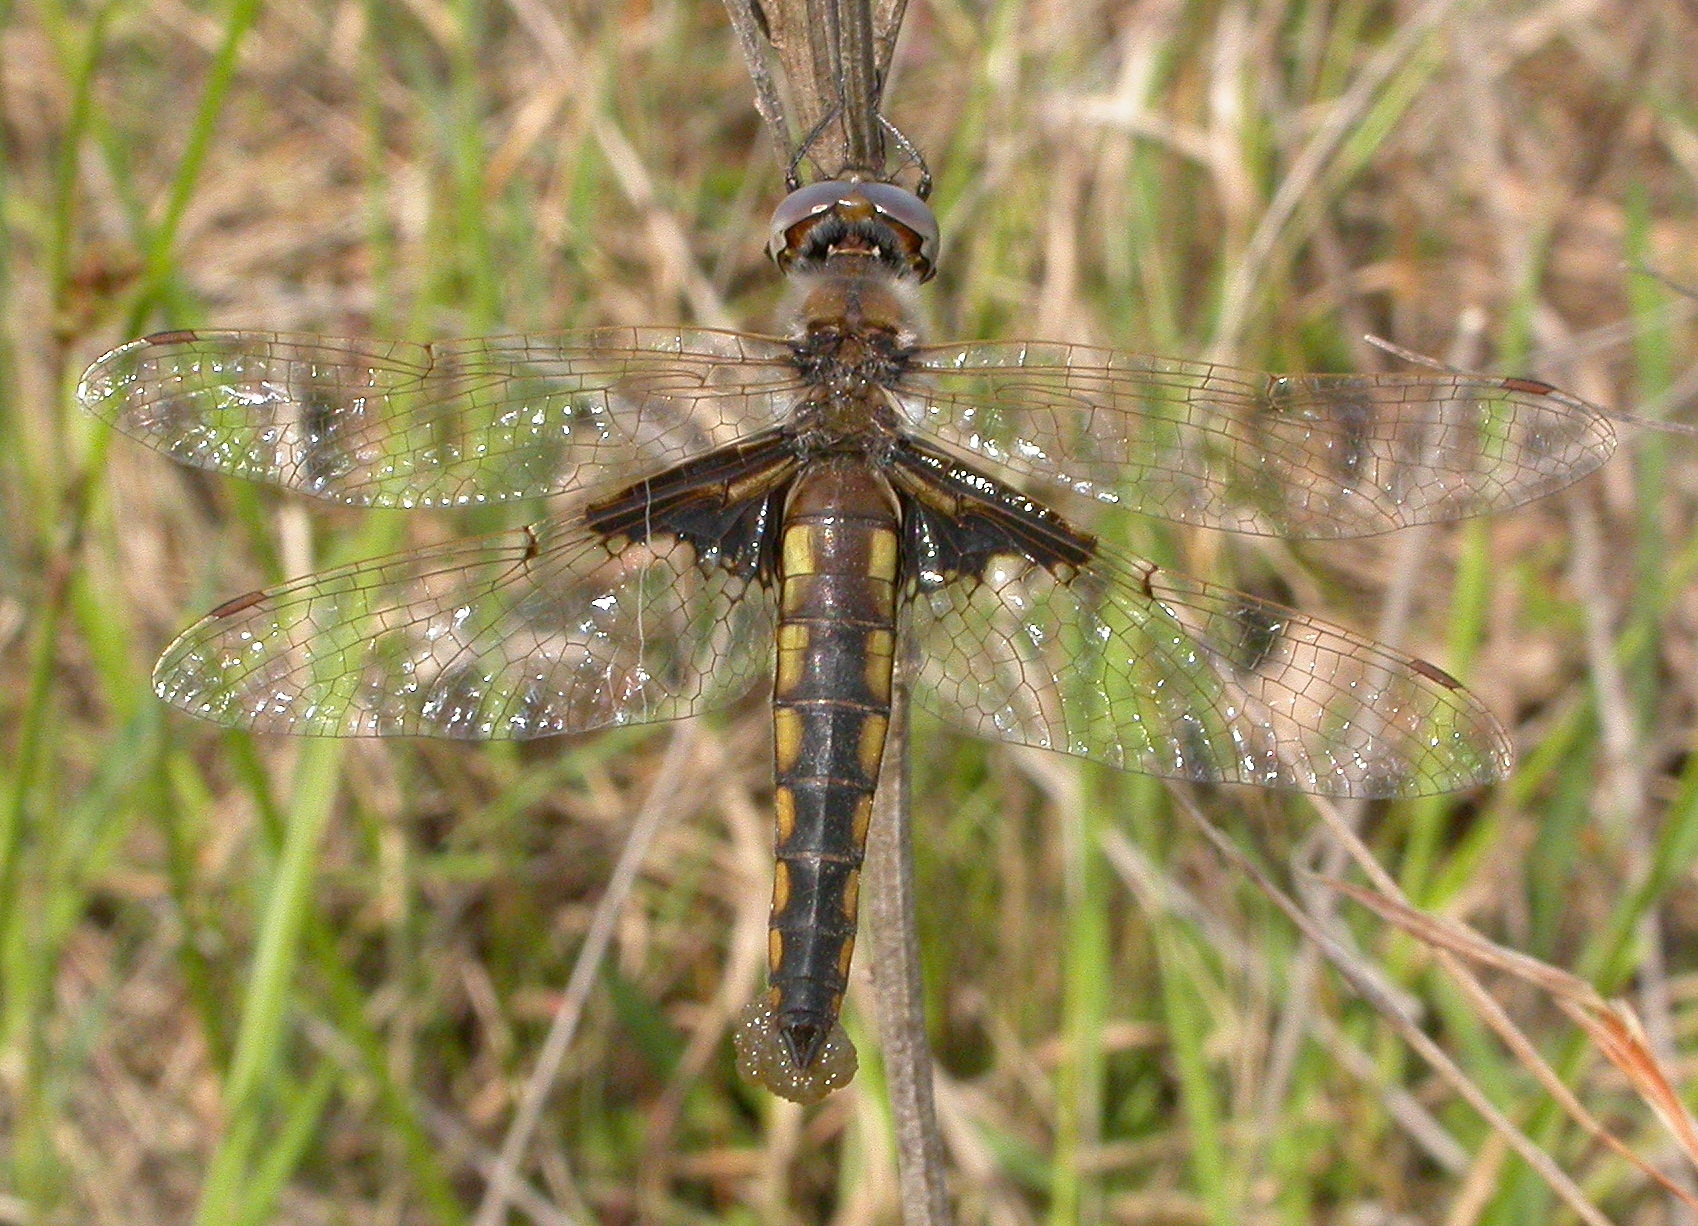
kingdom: Animalia
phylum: Arthropoda
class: Insecta
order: Odonata
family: Corduliidae
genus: Epitheca
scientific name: Epitheca semiaquea
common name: Mantled baskettail
